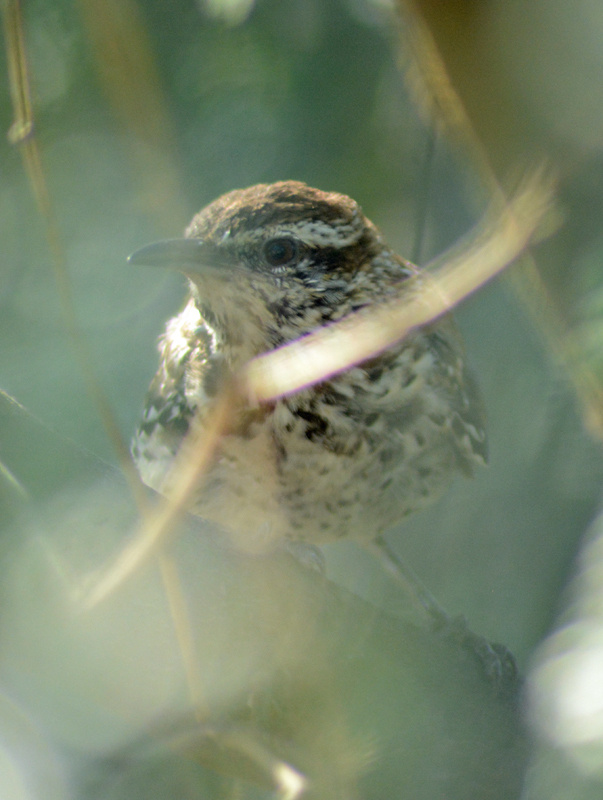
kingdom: Animalia
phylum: Chordata
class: Aves
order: Passeriformes
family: Troglodytidae
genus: Campylorhynchus
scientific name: Campylorhynchus brunneicapillus
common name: Cactus wren
